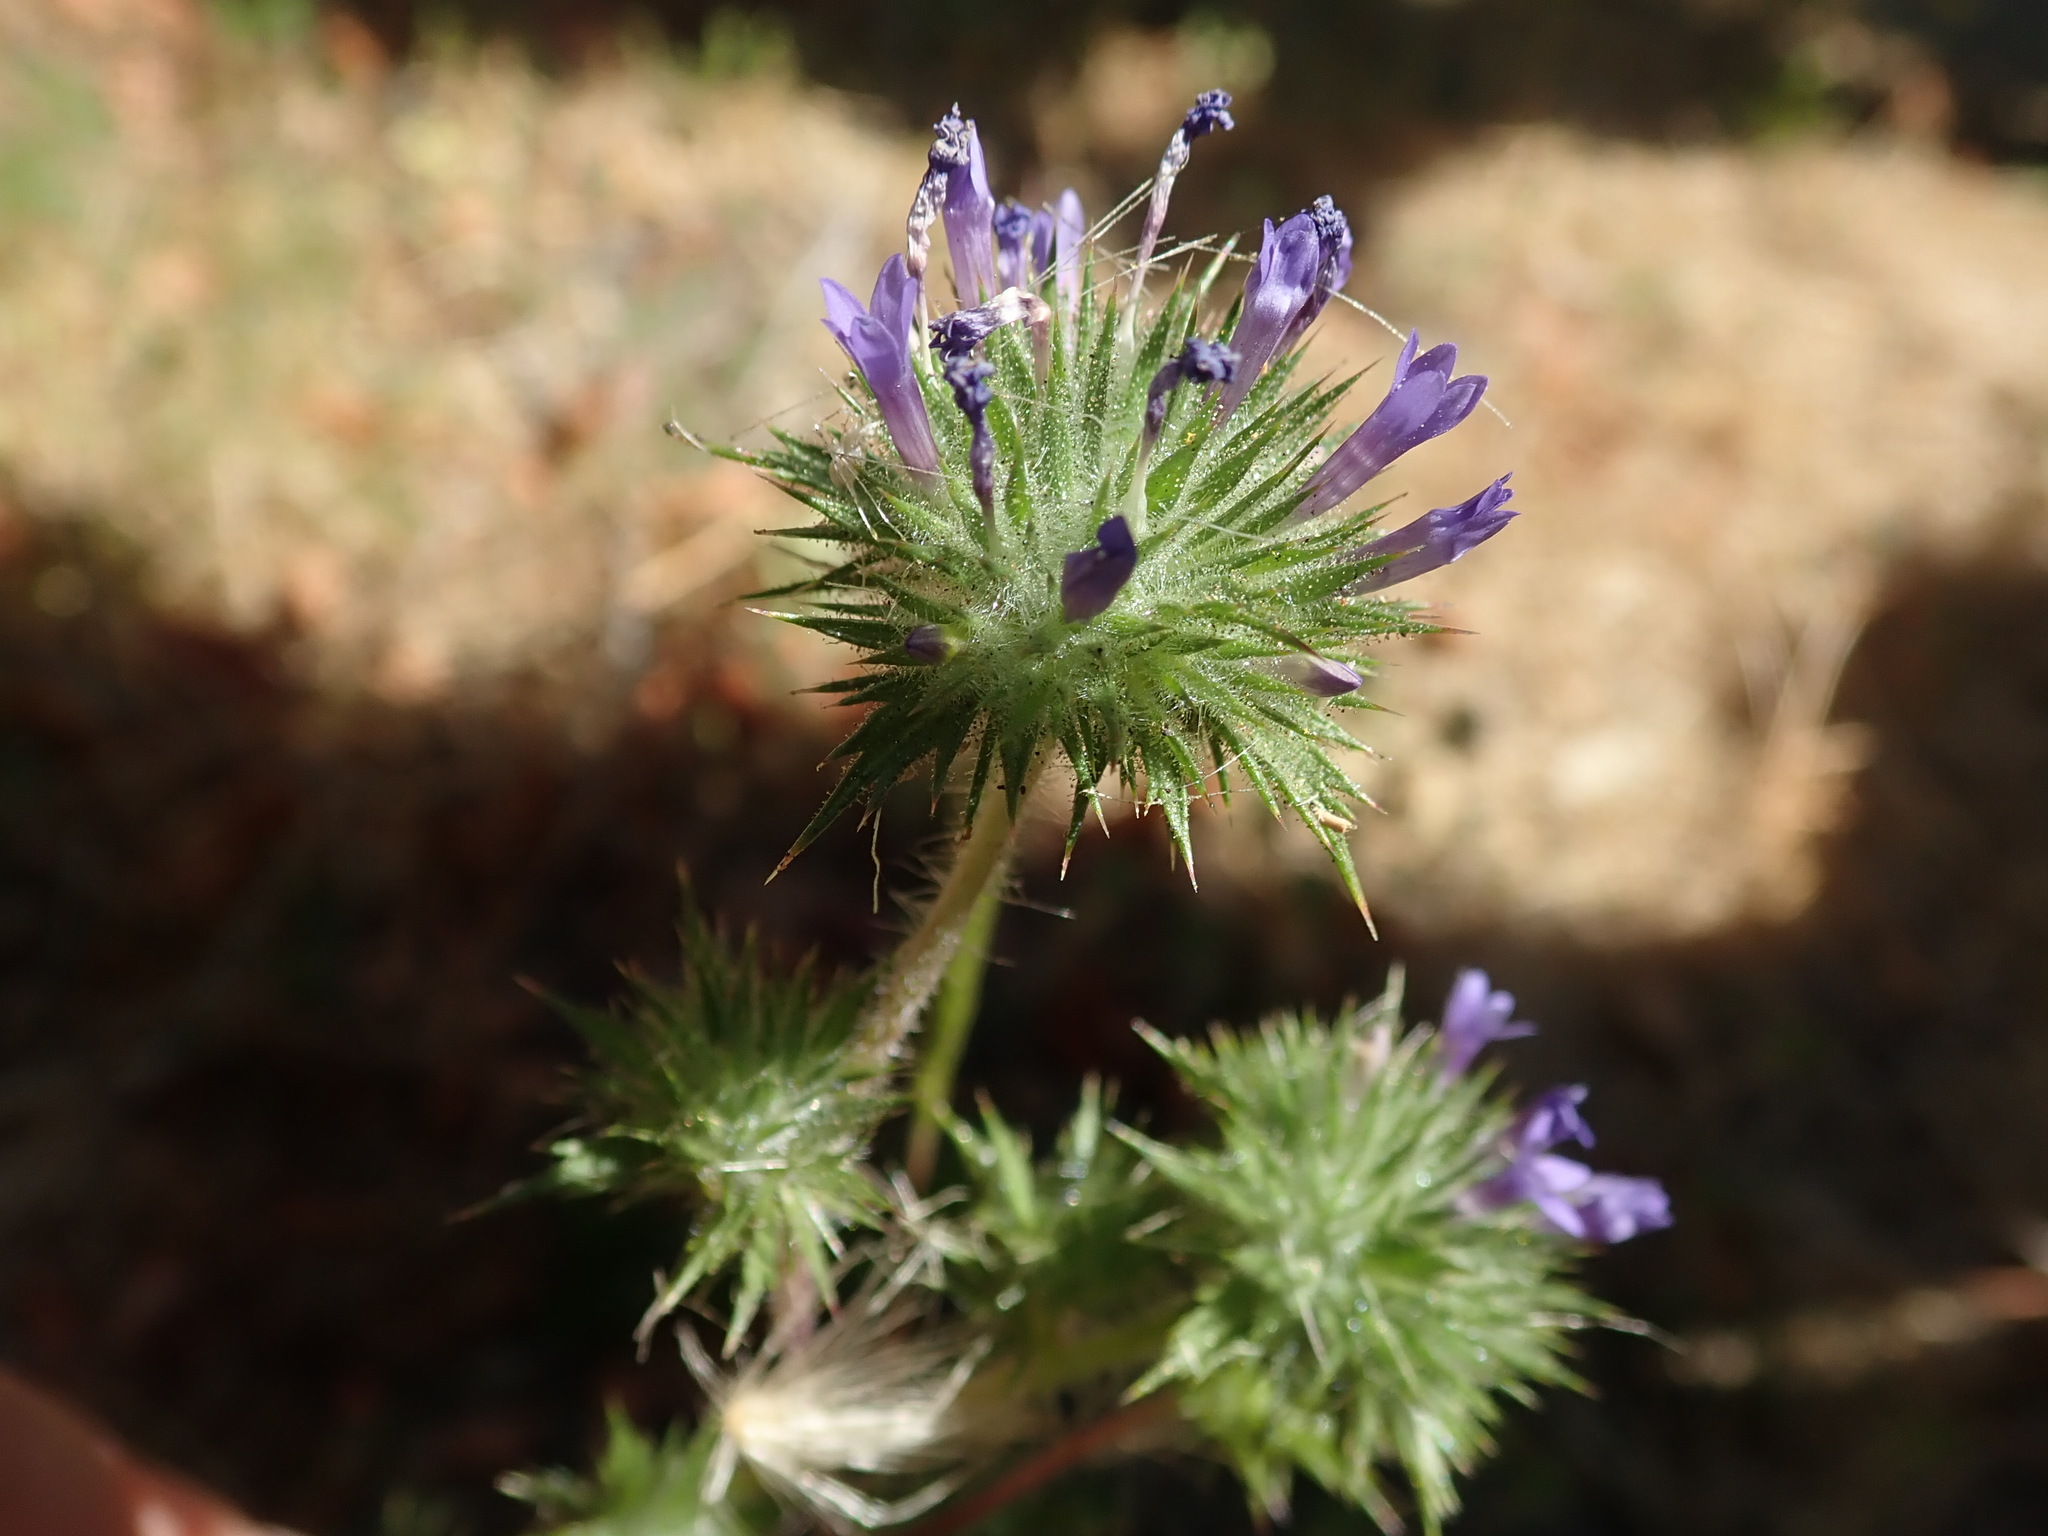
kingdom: Plantae
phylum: Tracheophyta
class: Magnoliopsida
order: Ericales
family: Polemoniaceae
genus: Navarretia
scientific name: Navarretia squarrosa
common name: Skunkweed
